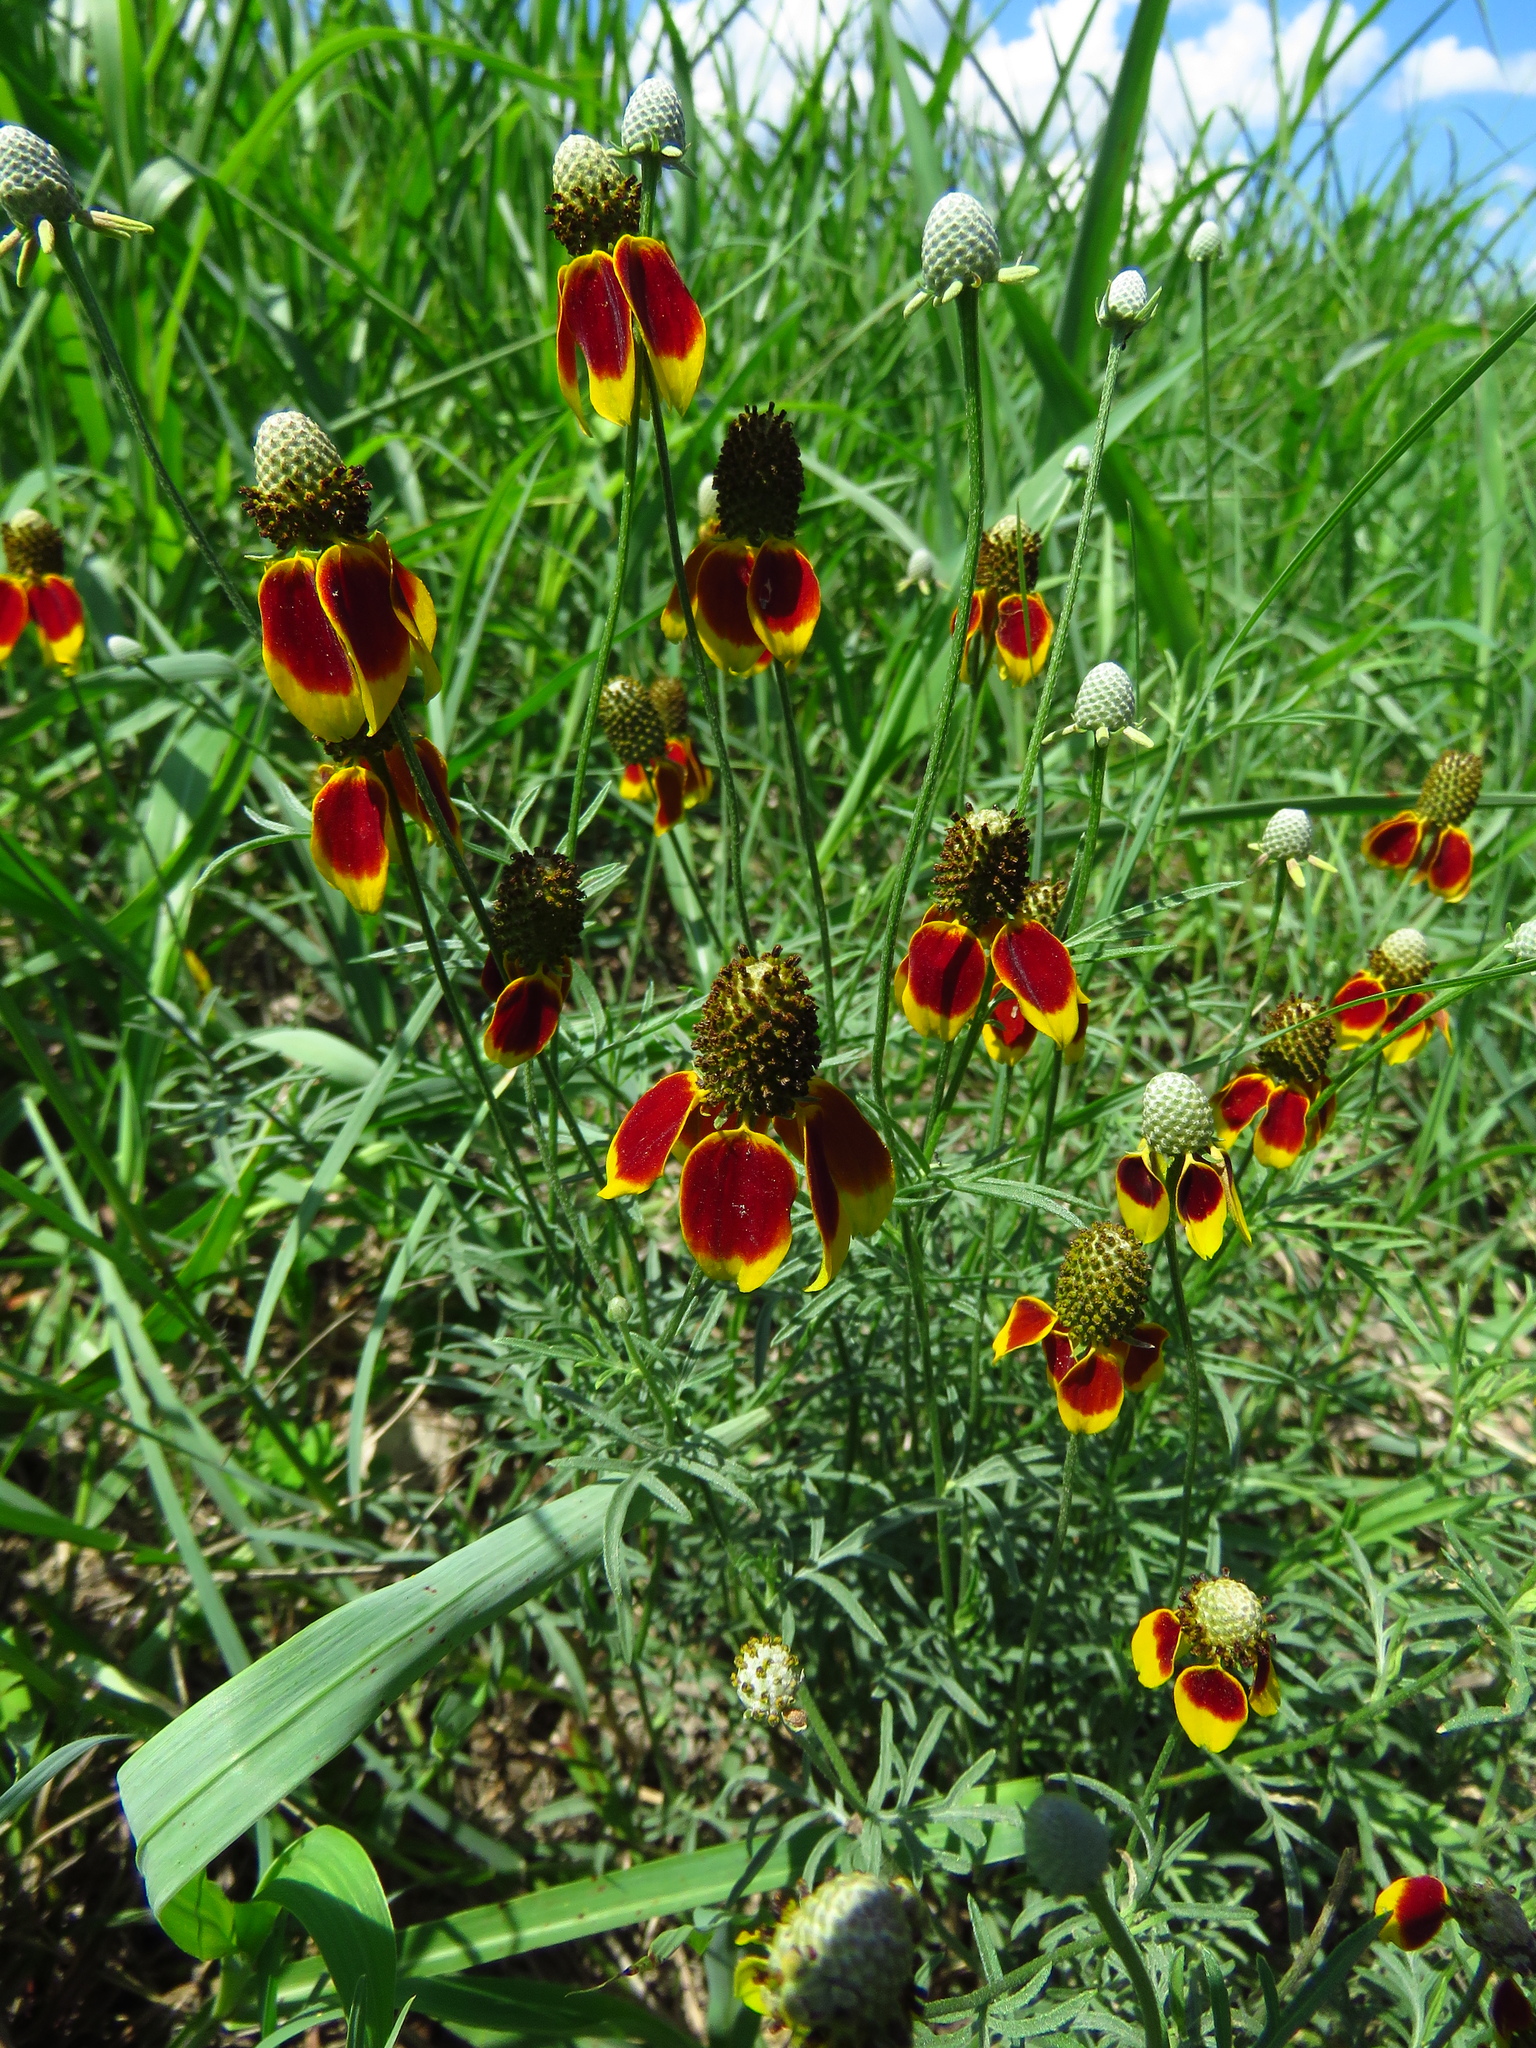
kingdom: Plantae
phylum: Tracheophyta
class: Magnoliopsida
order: Asterales
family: Asteraceae
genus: Ratibida
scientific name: Ratibida columnifera
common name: Prairie coneflower
